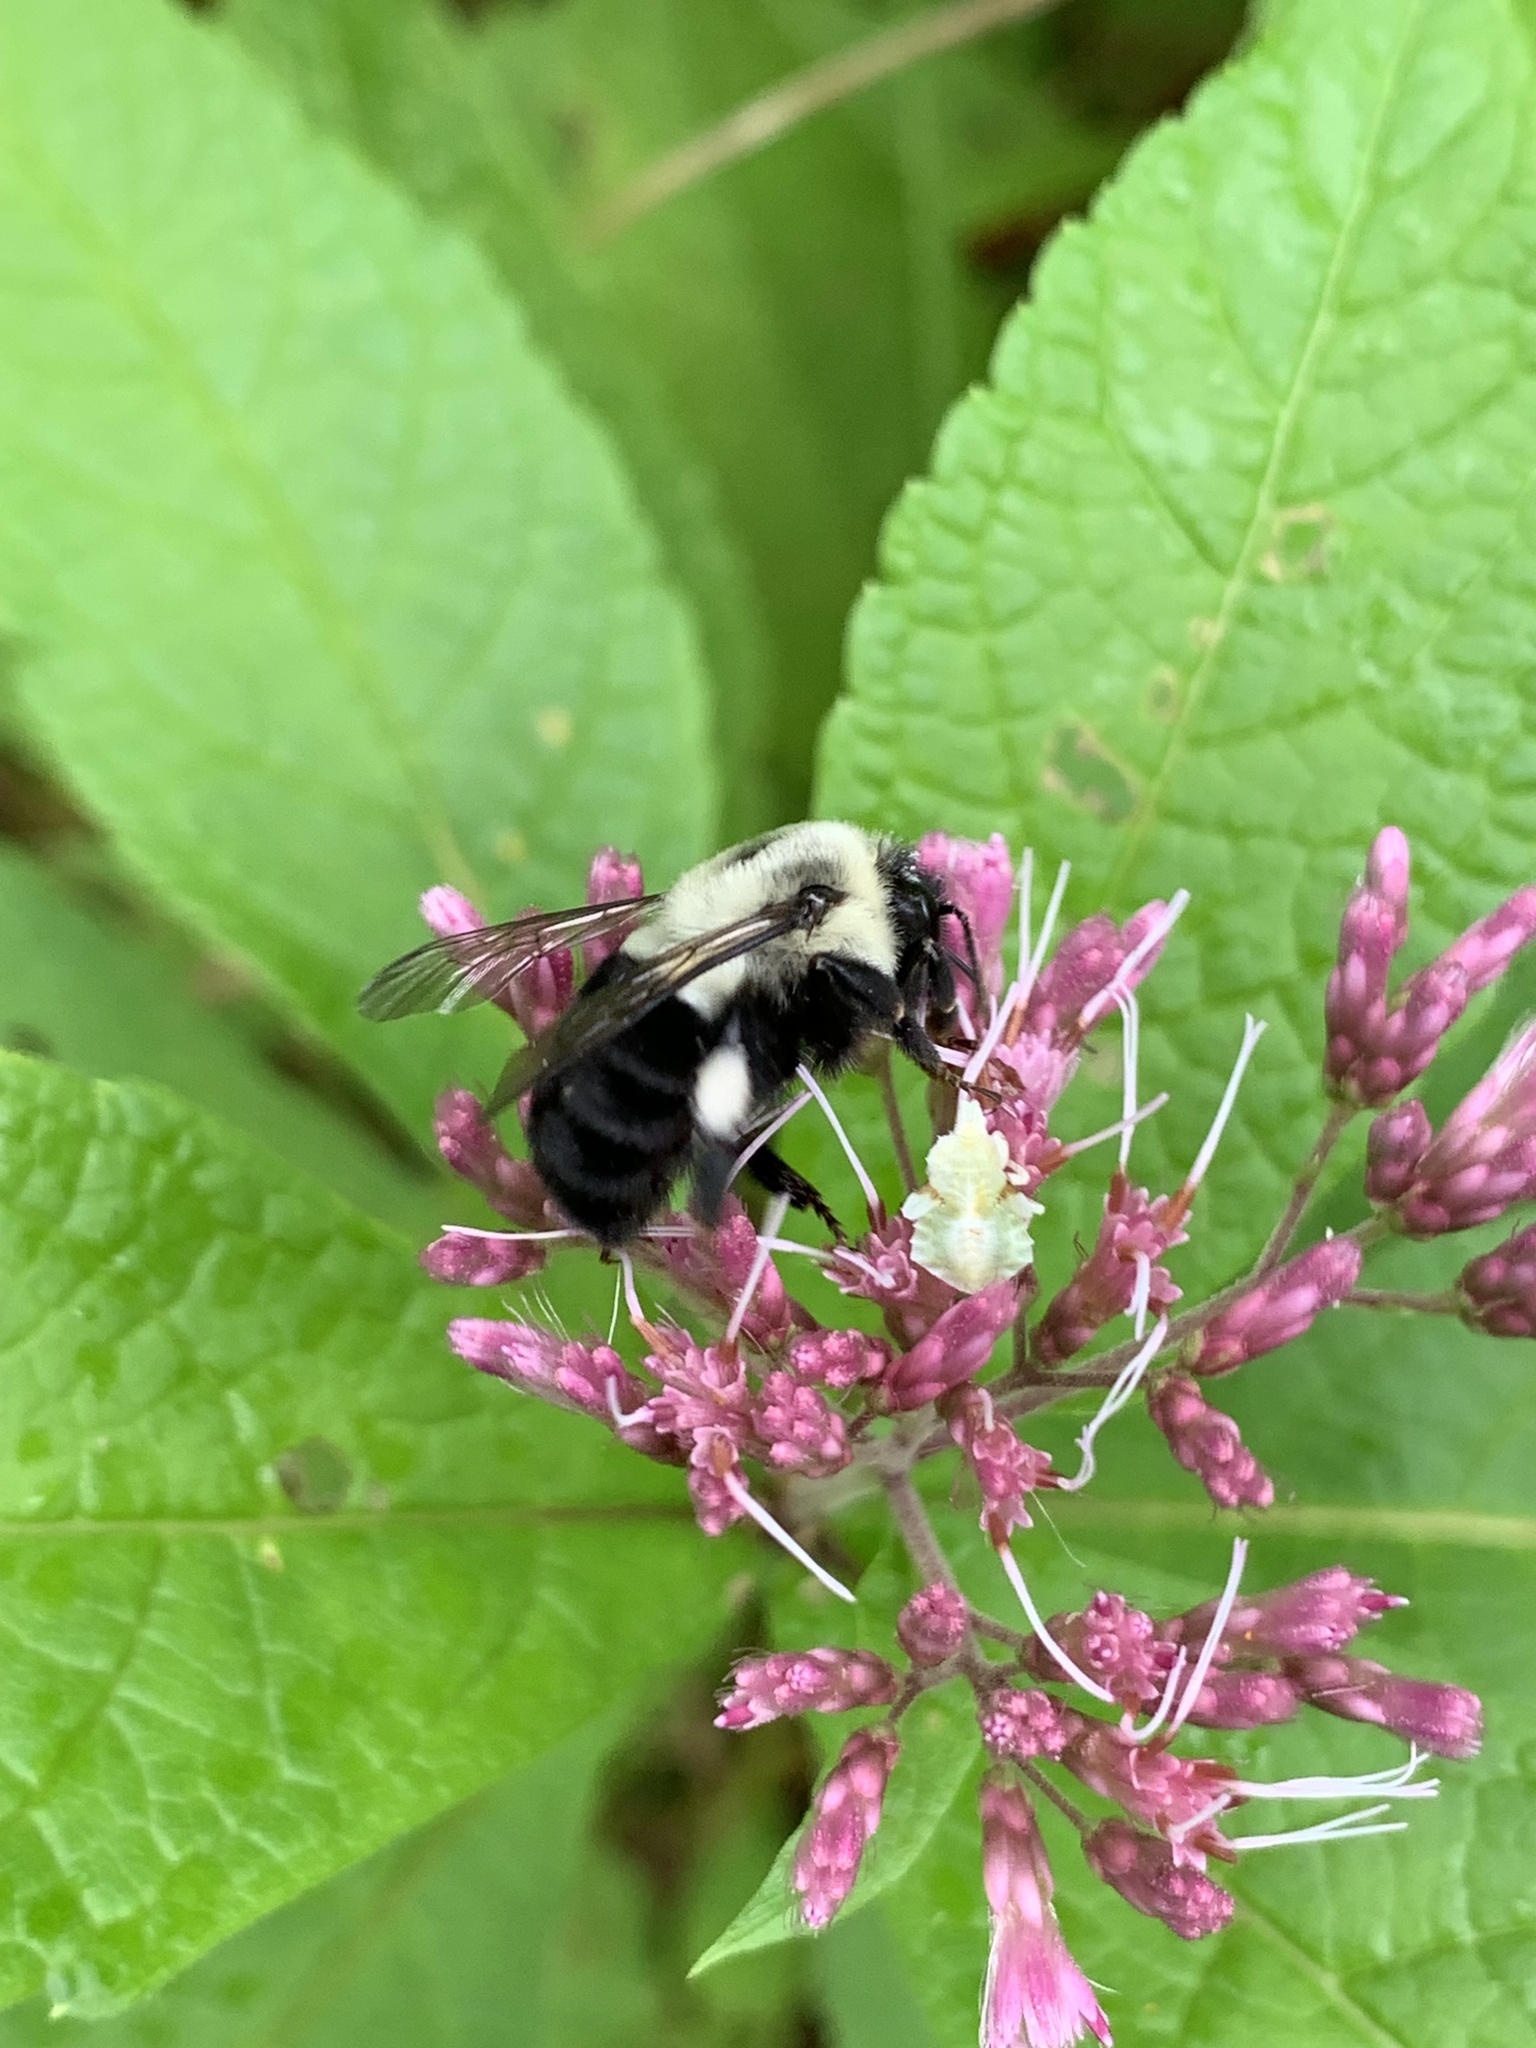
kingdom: Animalia
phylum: Arthropoda
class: Insecta
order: Hymenoptera
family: Apidae
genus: Bombus
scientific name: Bombus impatiens
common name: Common eastern bumble bee
